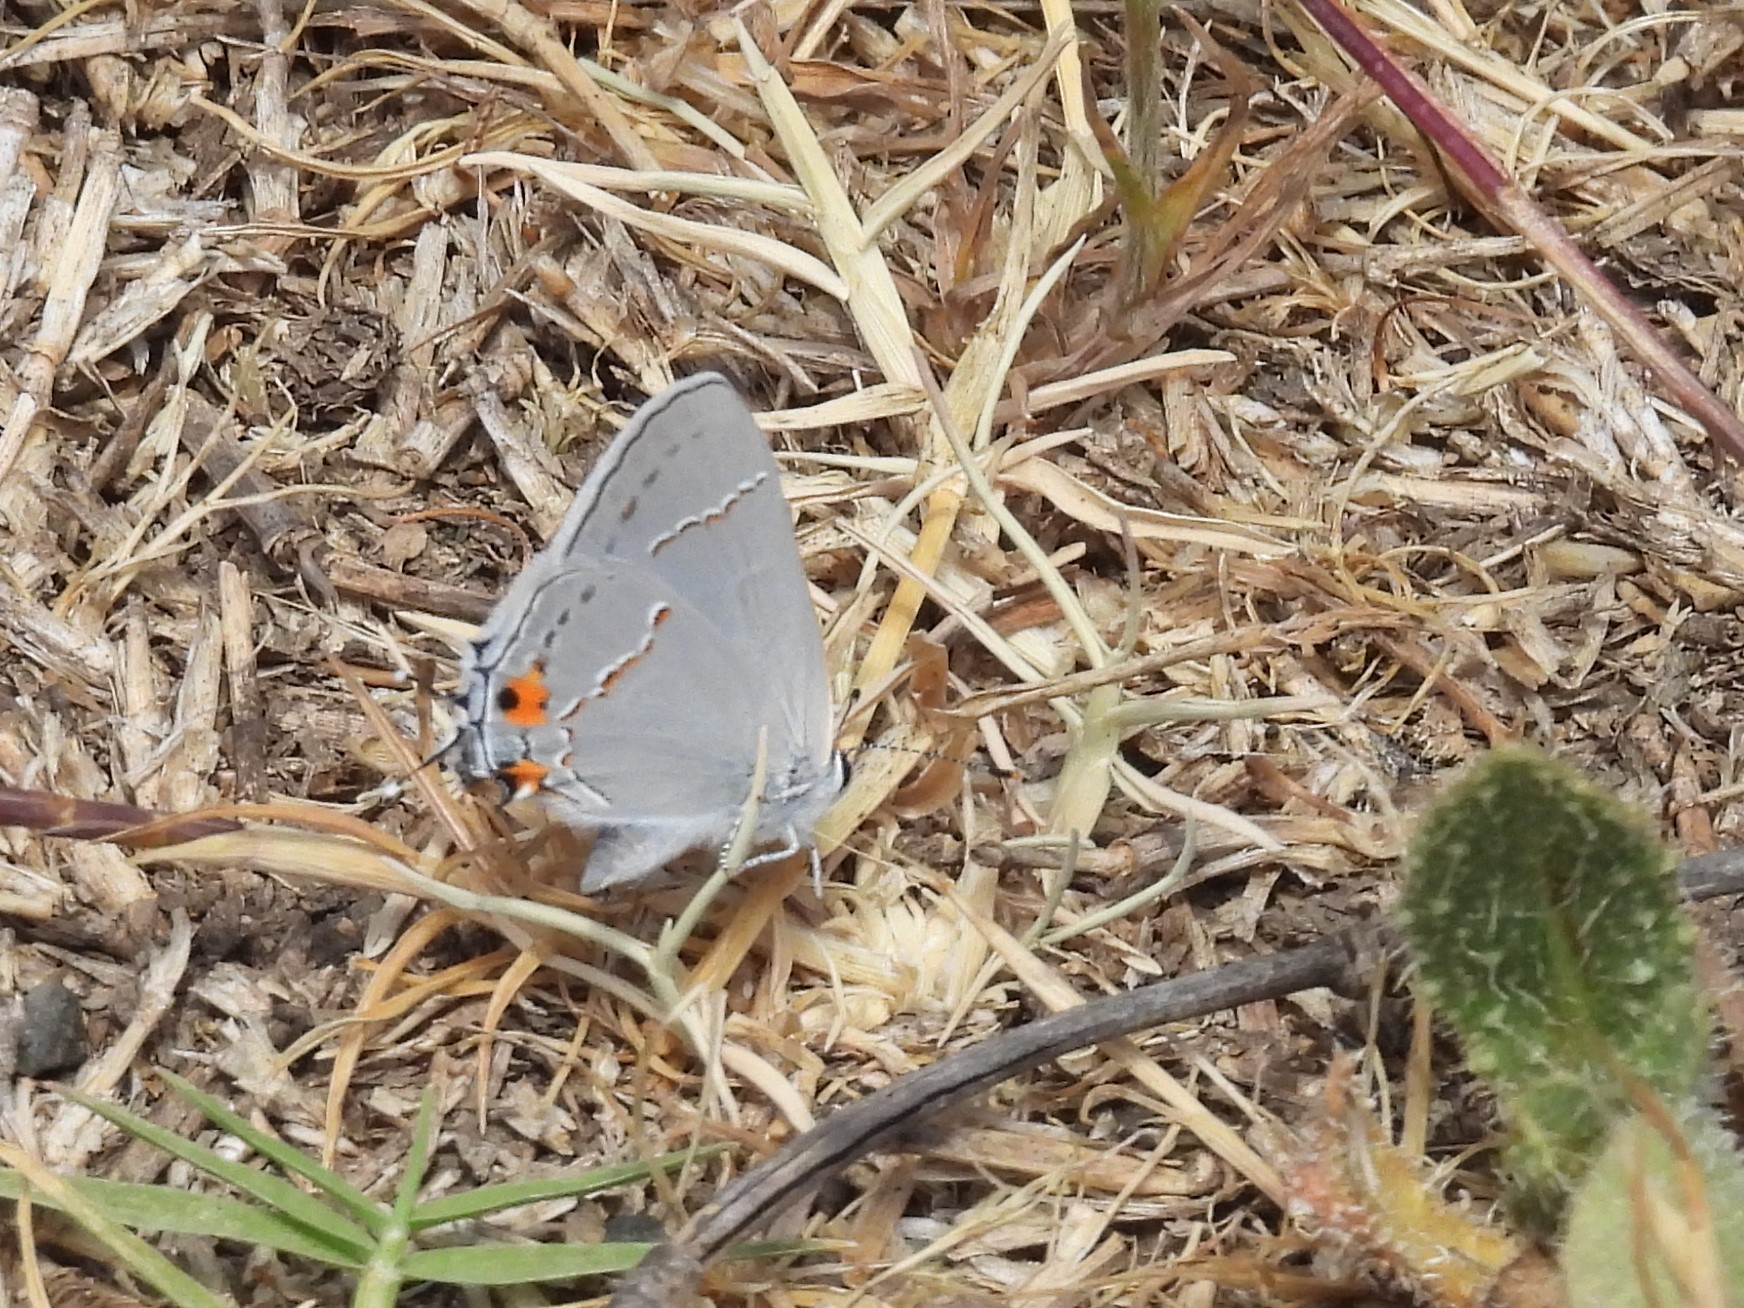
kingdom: Animalia
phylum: Arthropoda
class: Insecta
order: Lepidoptera
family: Lycaenidae
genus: Strymon
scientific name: Strymon melinus
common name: Gray hairstreak
